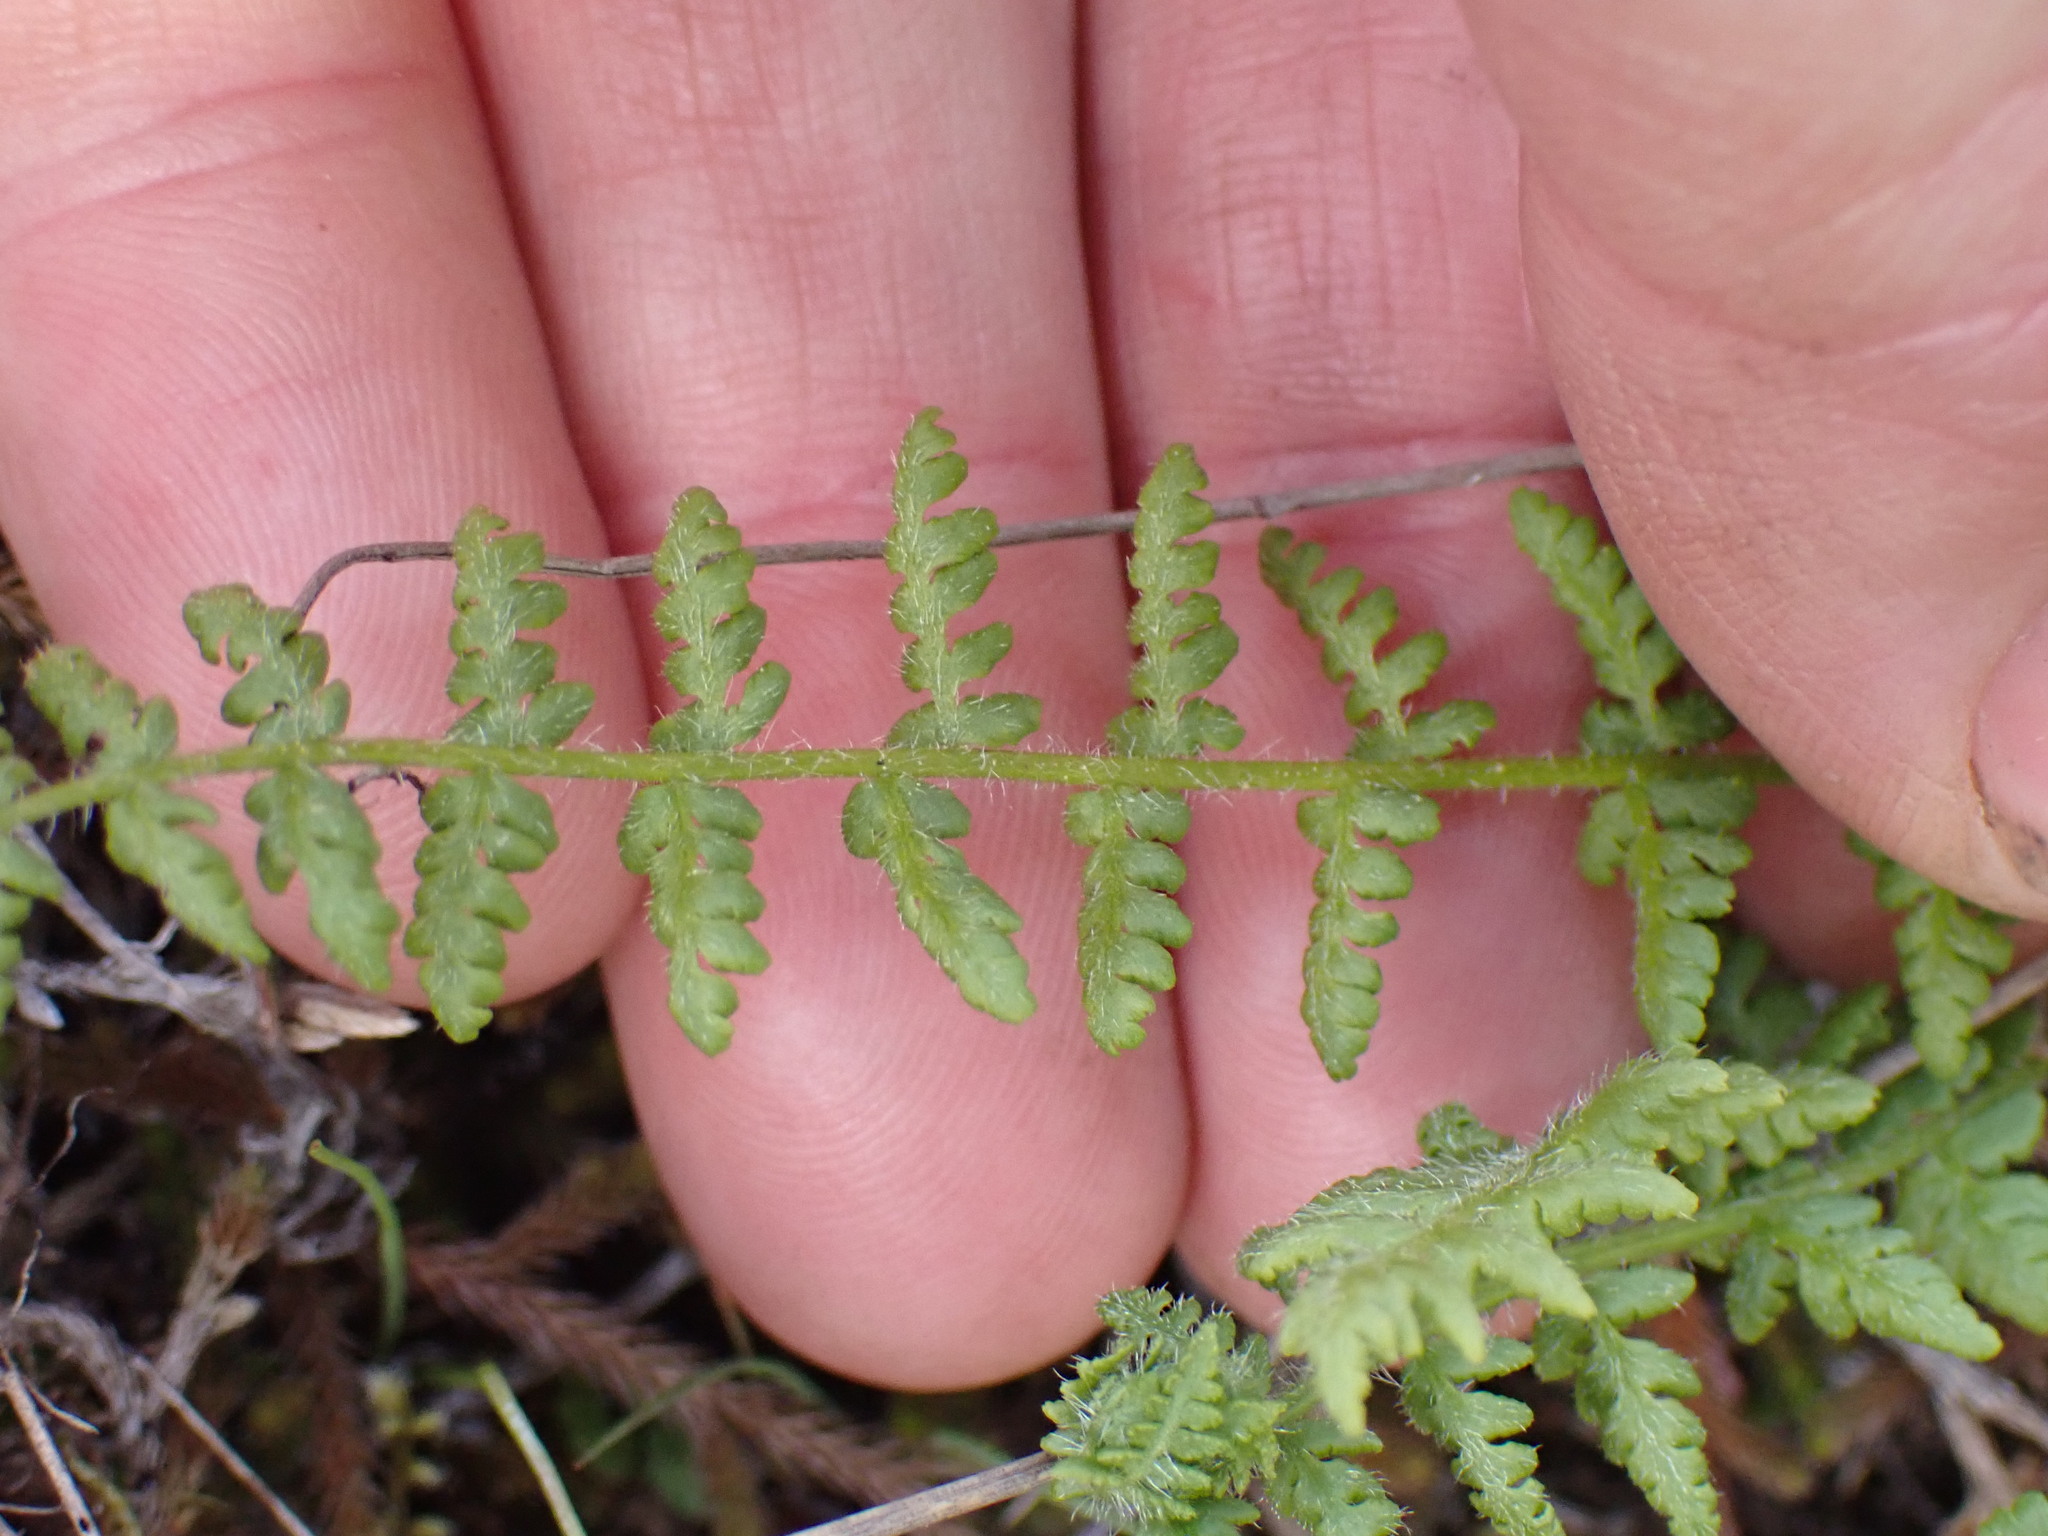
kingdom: Plantae
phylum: Tracheophyta
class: Polypodiopsida
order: Polypodiales
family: Woodsiaceae
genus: Physematium
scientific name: Physematium scopulinum
